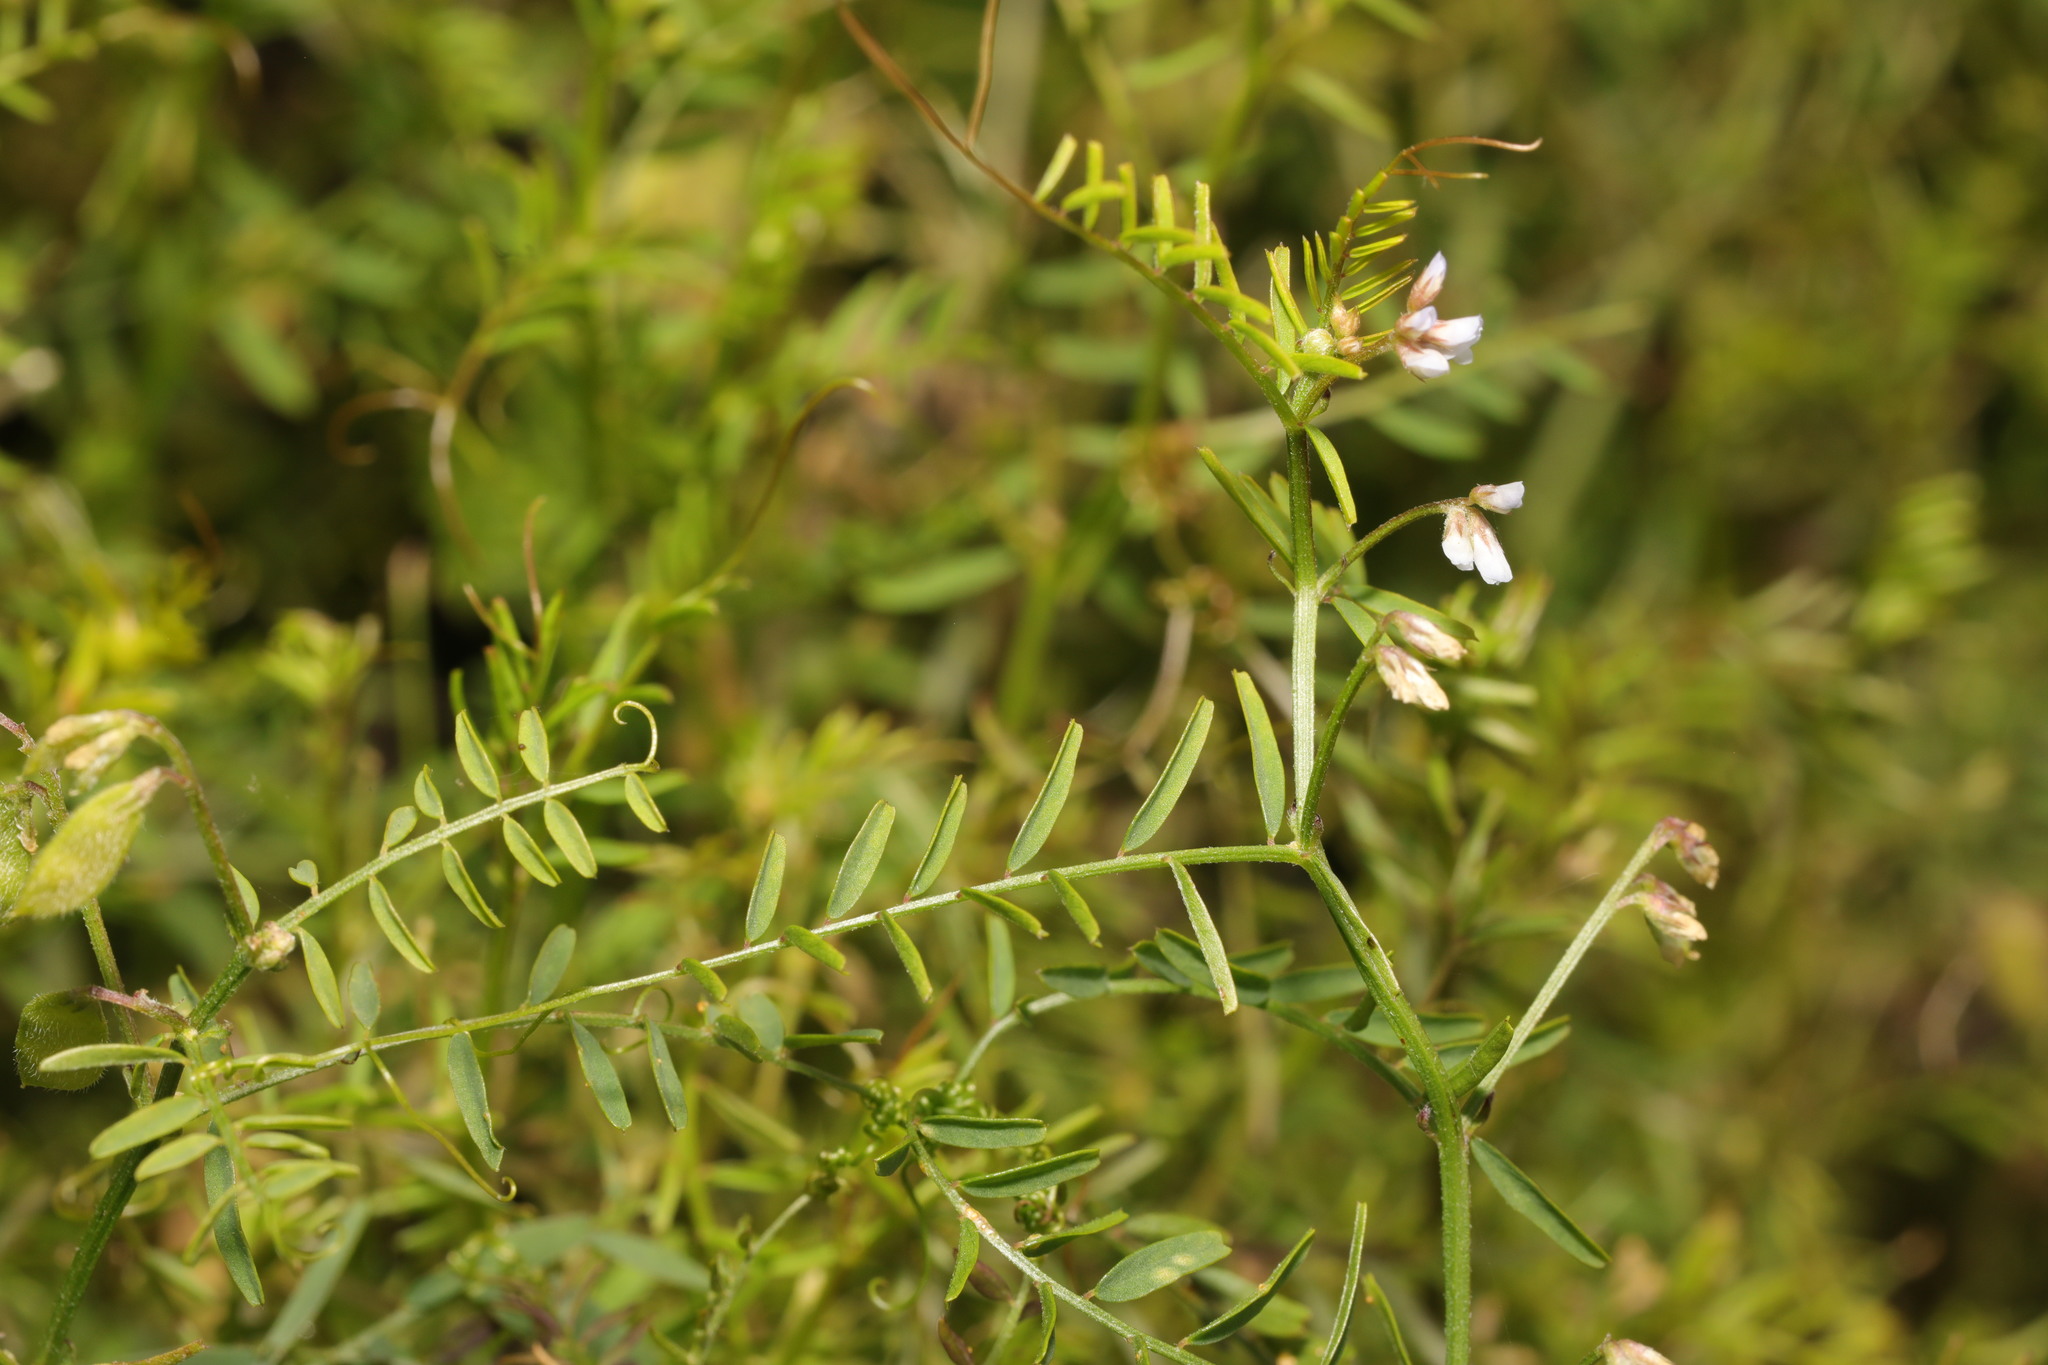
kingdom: Plantae
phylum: Tracheophyta
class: Magnoliopsida
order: Fabales
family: Fabaceae
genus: Vicia
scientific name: Vicia hirsuta
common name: Tiny vetch
